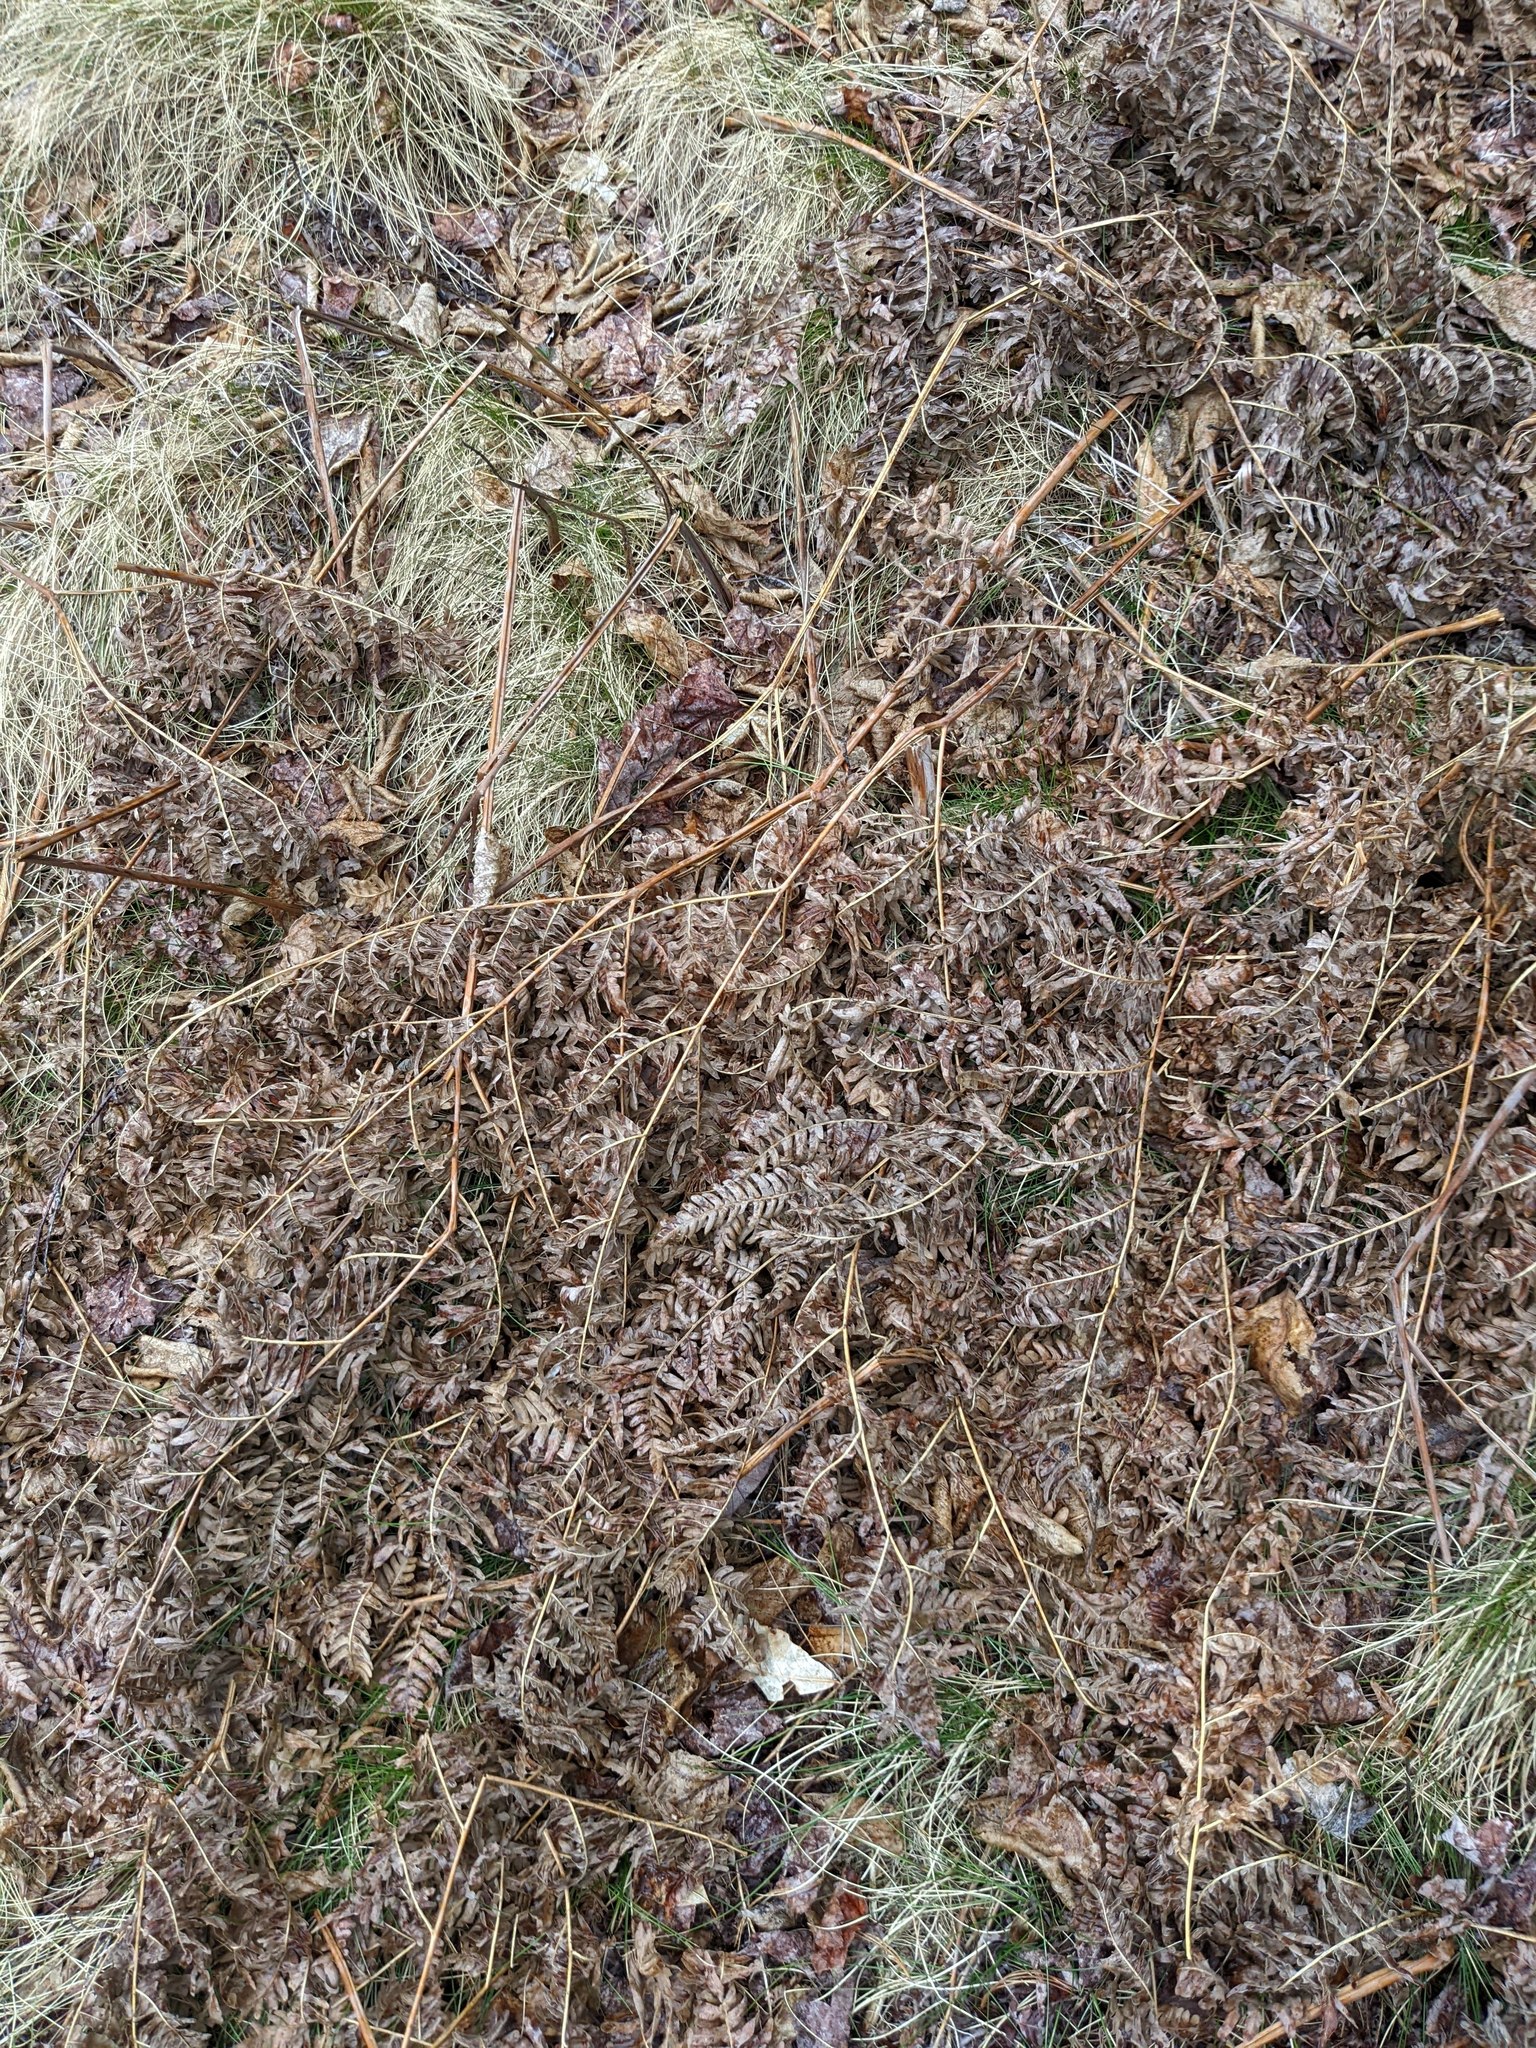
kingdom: Plantae
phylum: Tracheophyta
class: Polypodiopsida
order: Polypodiales
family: Dennstaedtiaceae
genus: Pteridium
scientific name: Pteridium aquilinum
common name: Bracken
